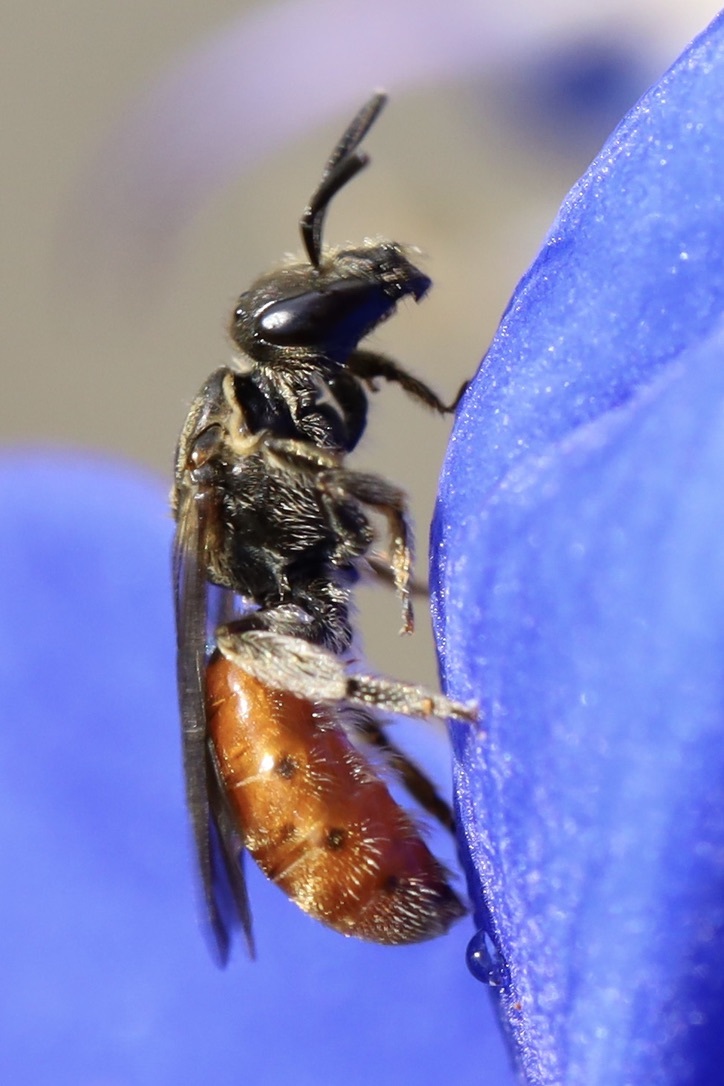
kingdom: Animalia
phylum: Arthropoda
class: Insecta
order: Hymenoptera
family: Halictidae
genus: Lasioglossum
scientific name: Lasioglossum ovaliceps
